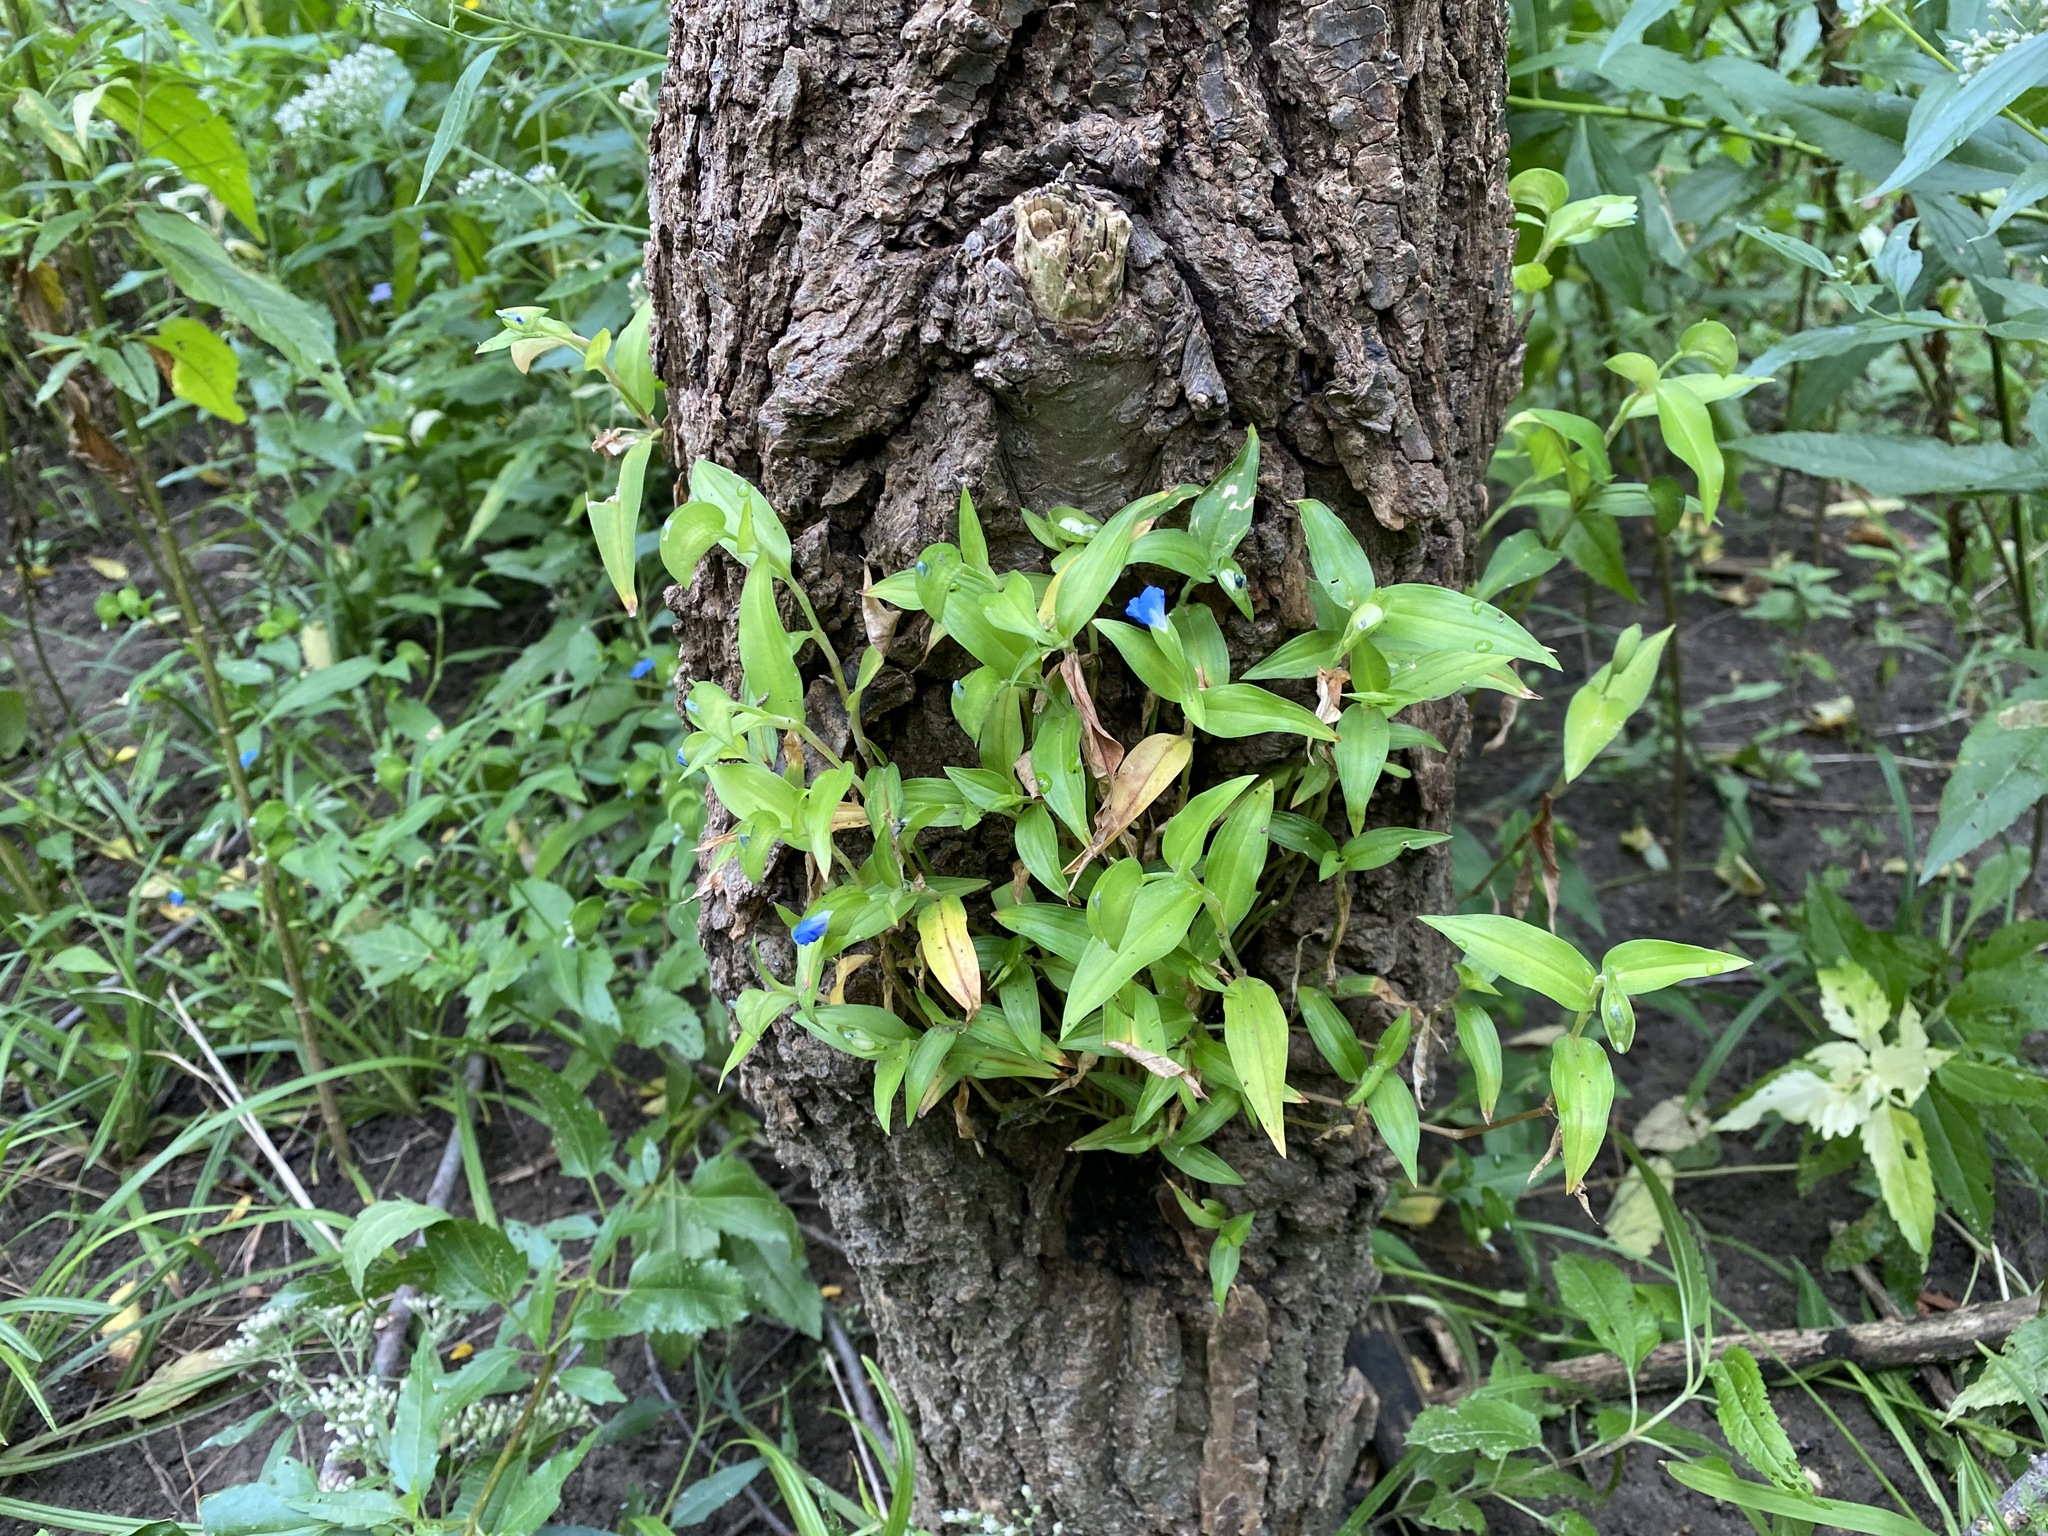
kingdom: Plantae
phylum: Tracheophyta
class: Liliopsida
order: Commelinales
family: Commelinaceae
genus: Commelina
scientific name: Commelina communis
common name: Asiatic dayflower
